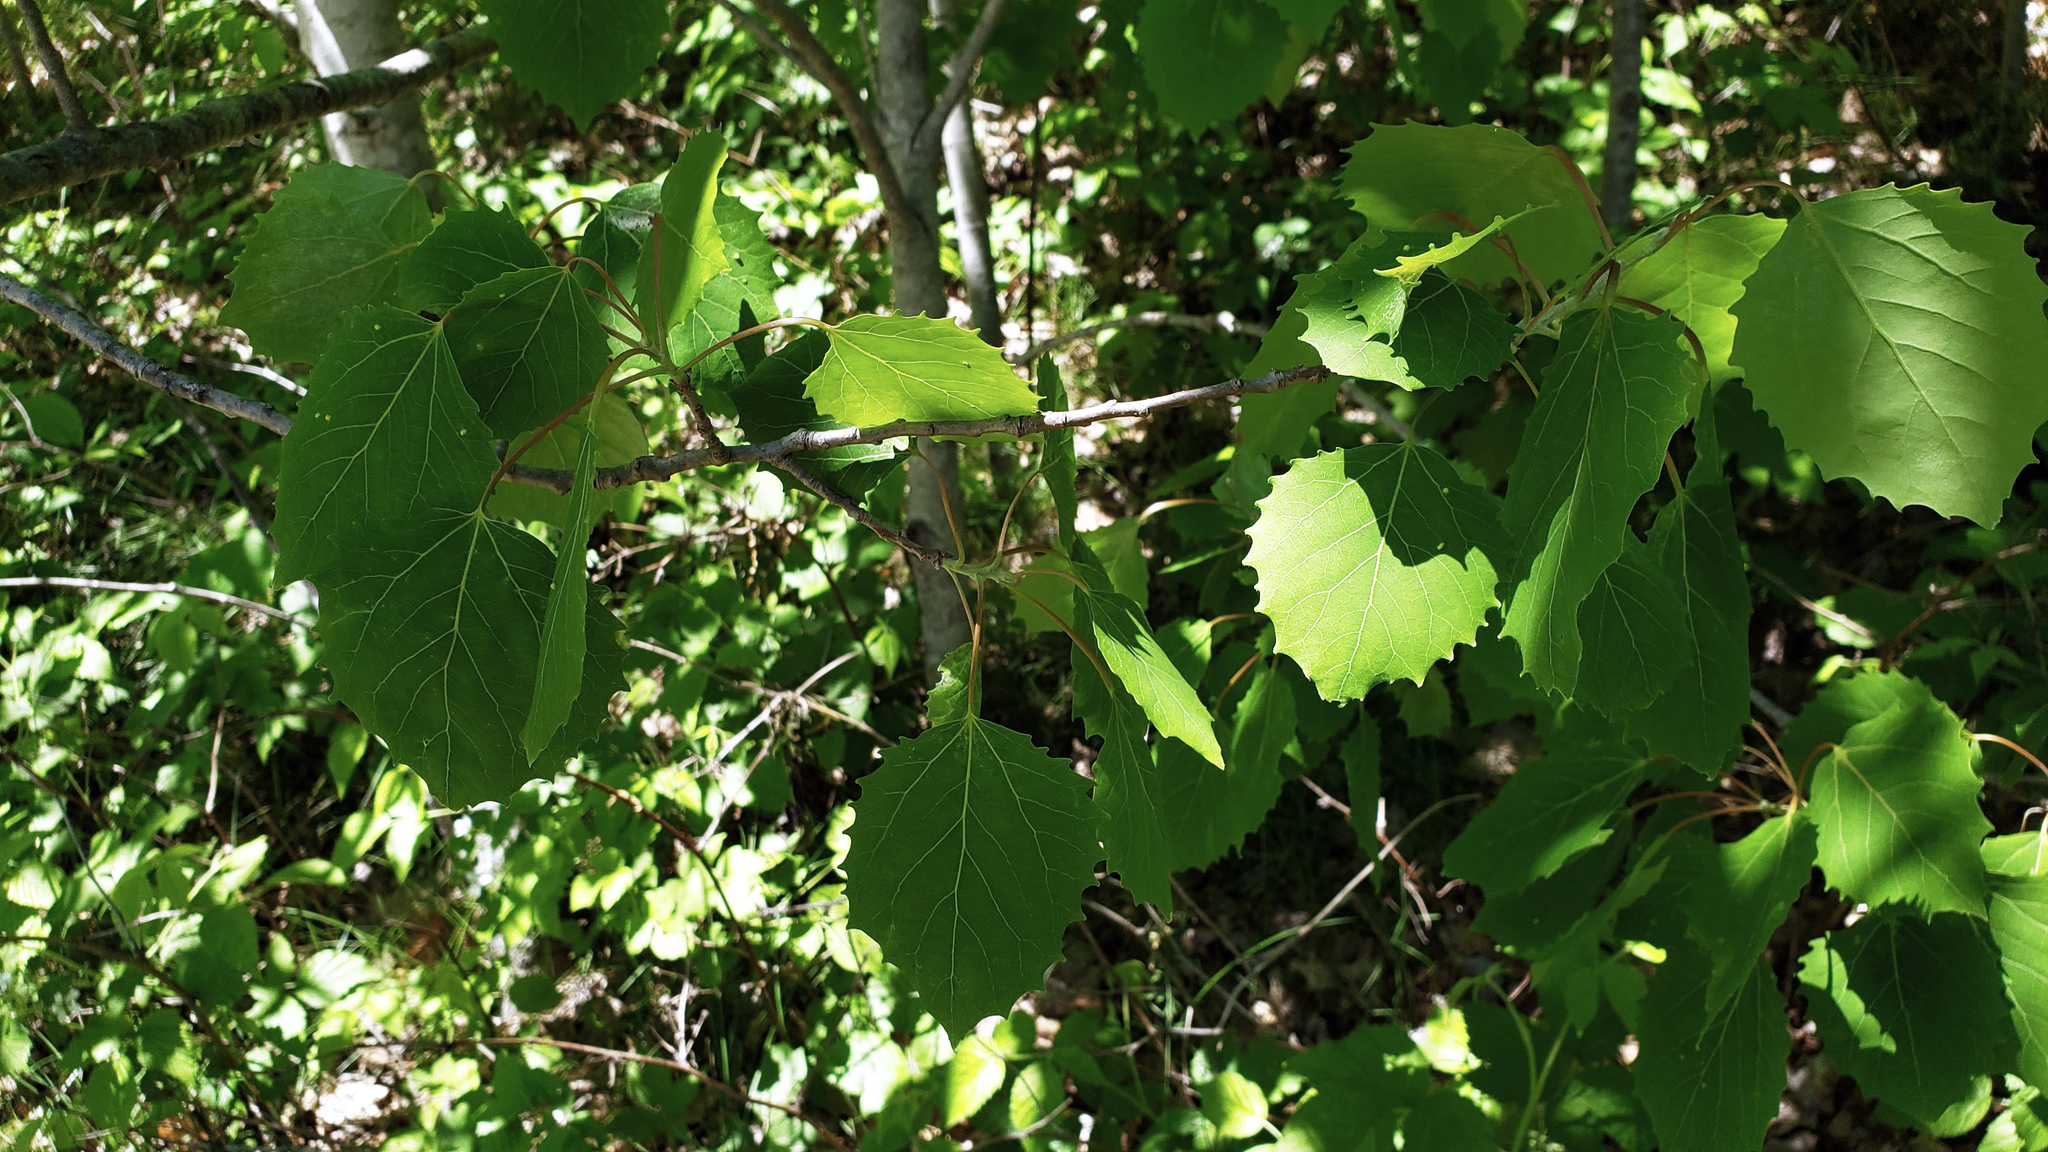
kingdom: Plantae
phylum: Tracheophyta
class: Magnoliopsida
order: Malpighiales
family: Salicaceae
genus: Populus
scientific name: Populus grandidentata
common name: Bigtooth aspen
